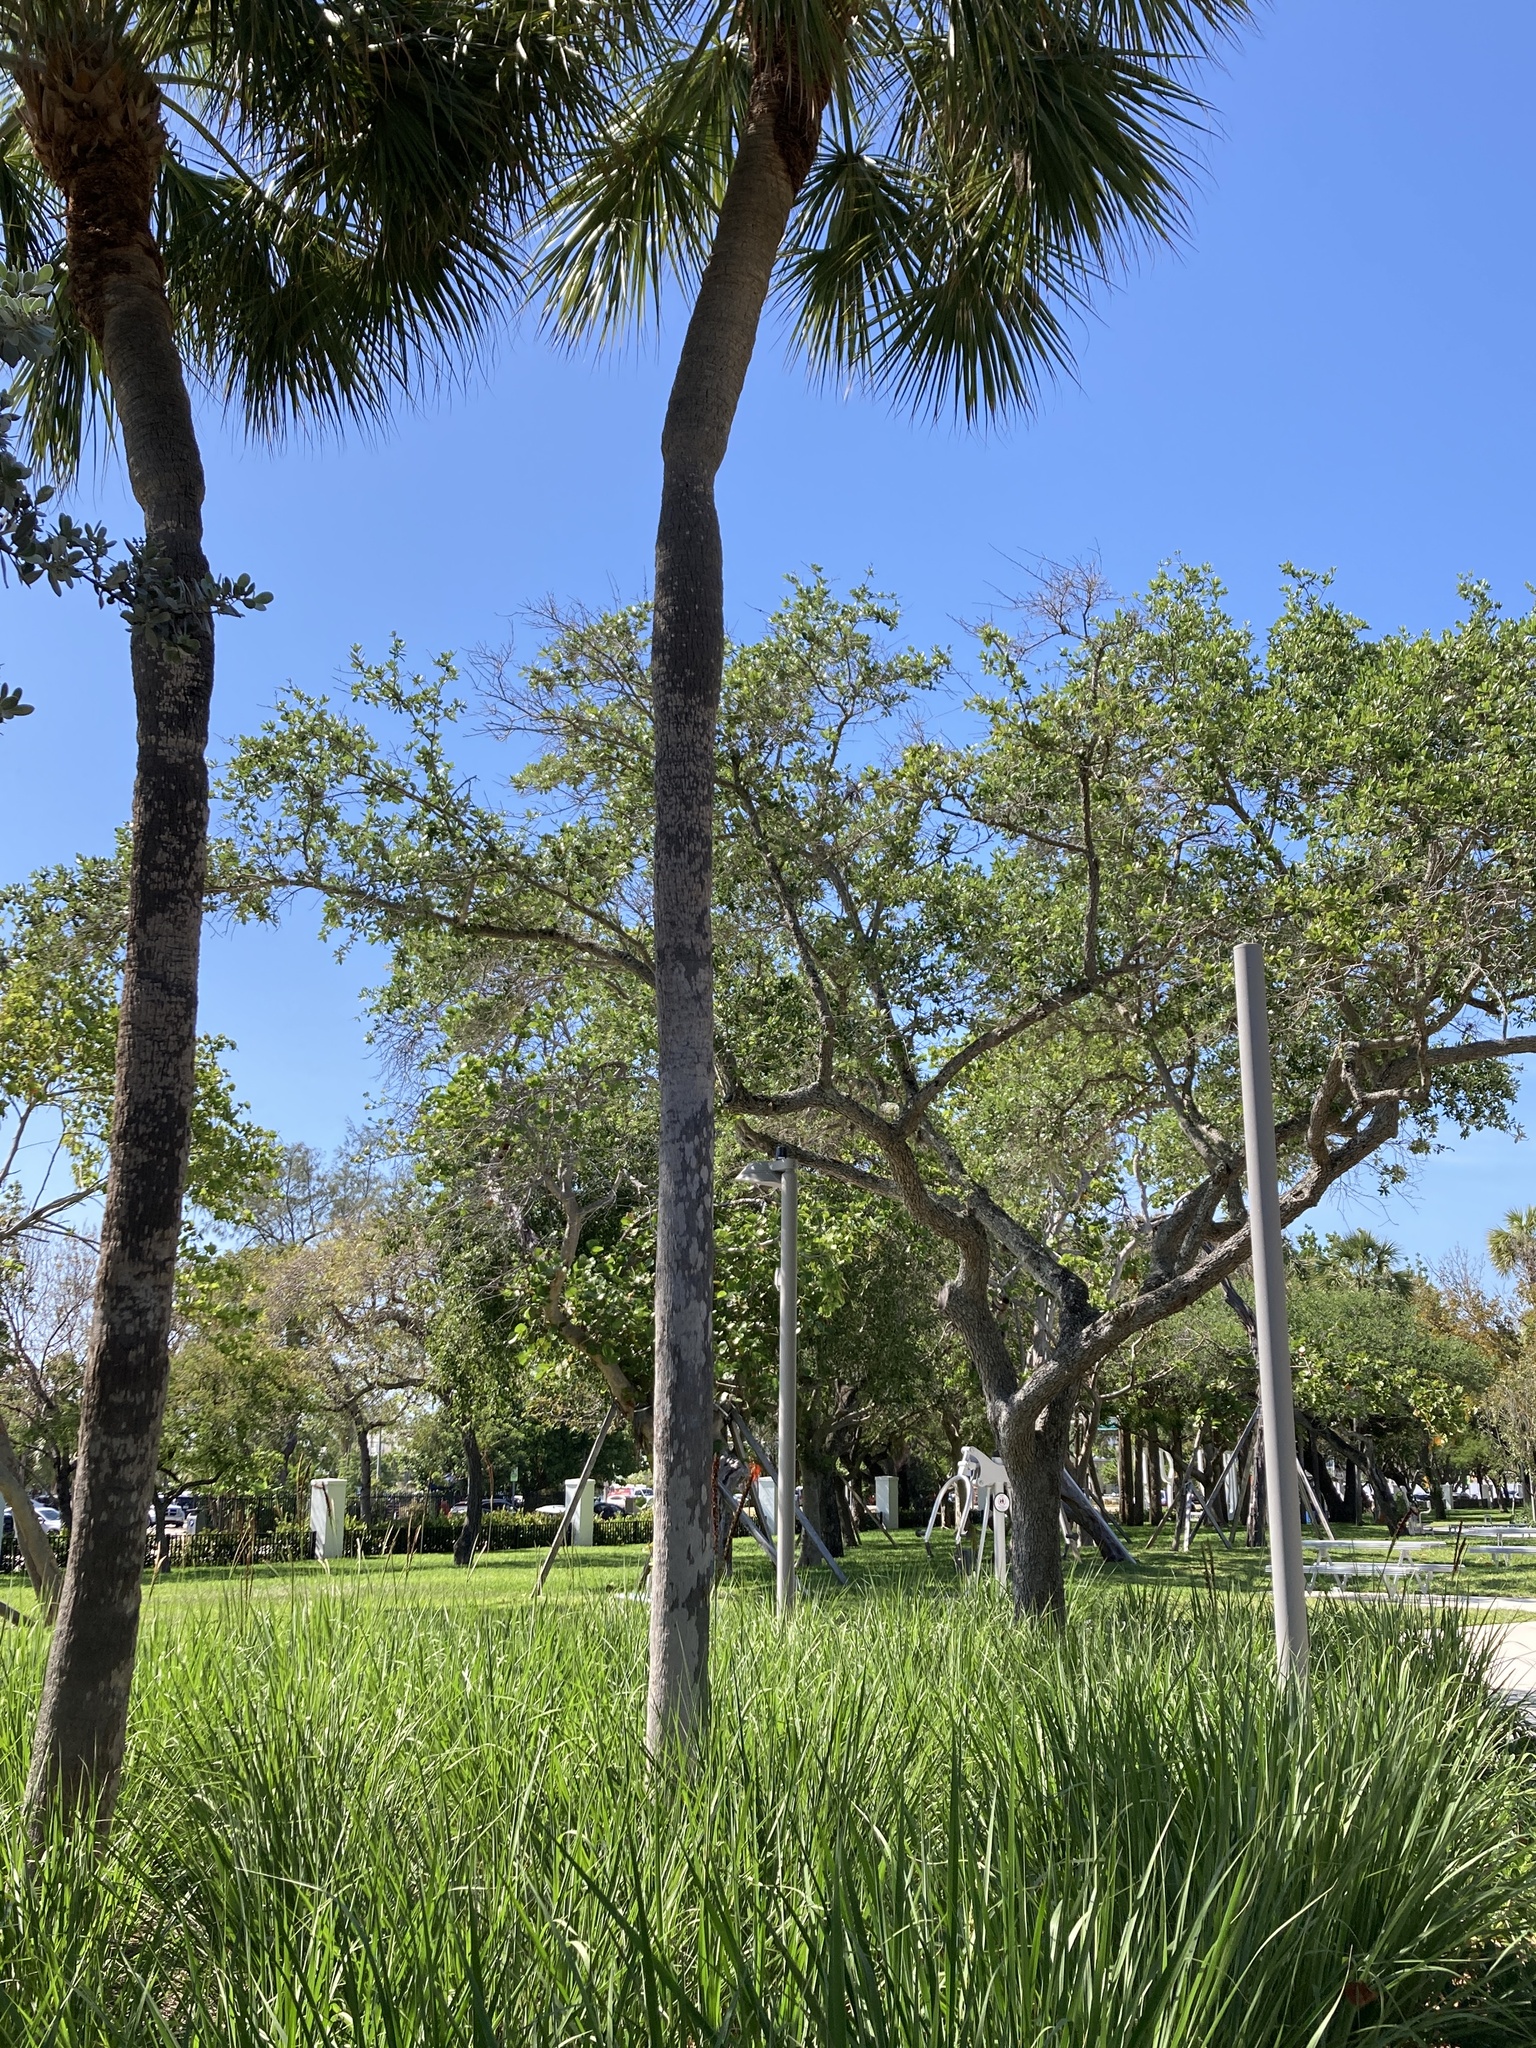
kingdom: Plantae
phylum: Tracheophyta
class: Liliopsida
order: Arecales
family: Arecaceae
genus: Sabal
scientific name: Sabal palmetto
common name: Blue palmetto
